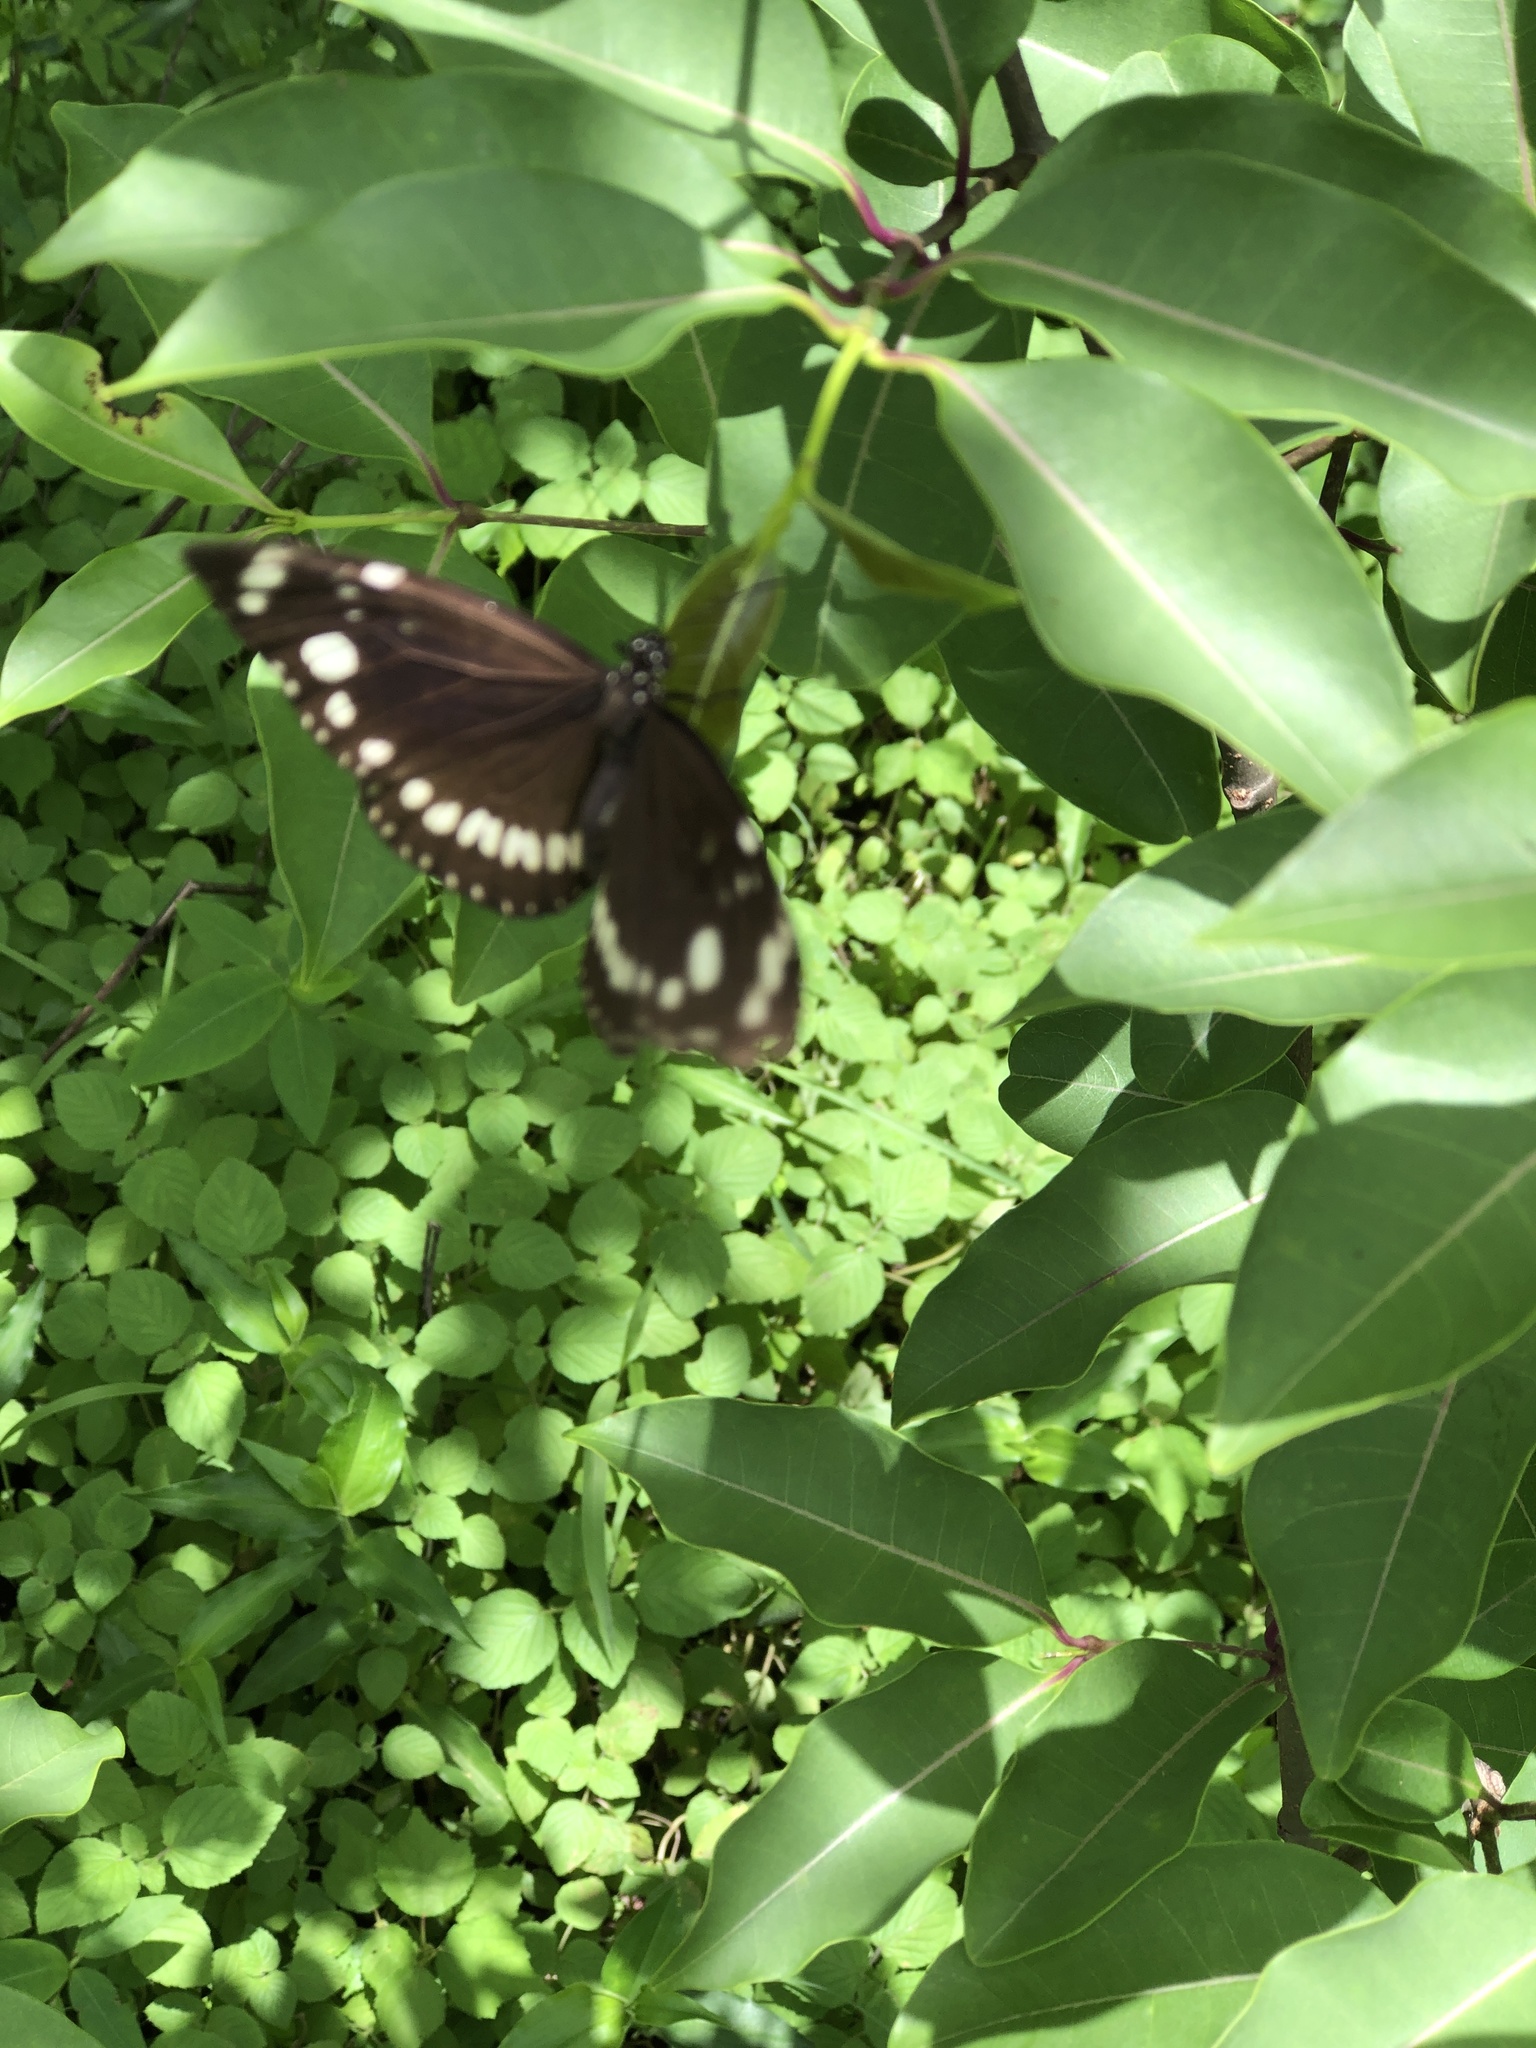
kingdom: Animalia
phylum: Arthropoda
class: Insecta
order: Lepidoptera
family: Nymphalidae
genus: Euploea
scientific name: Euploea core
